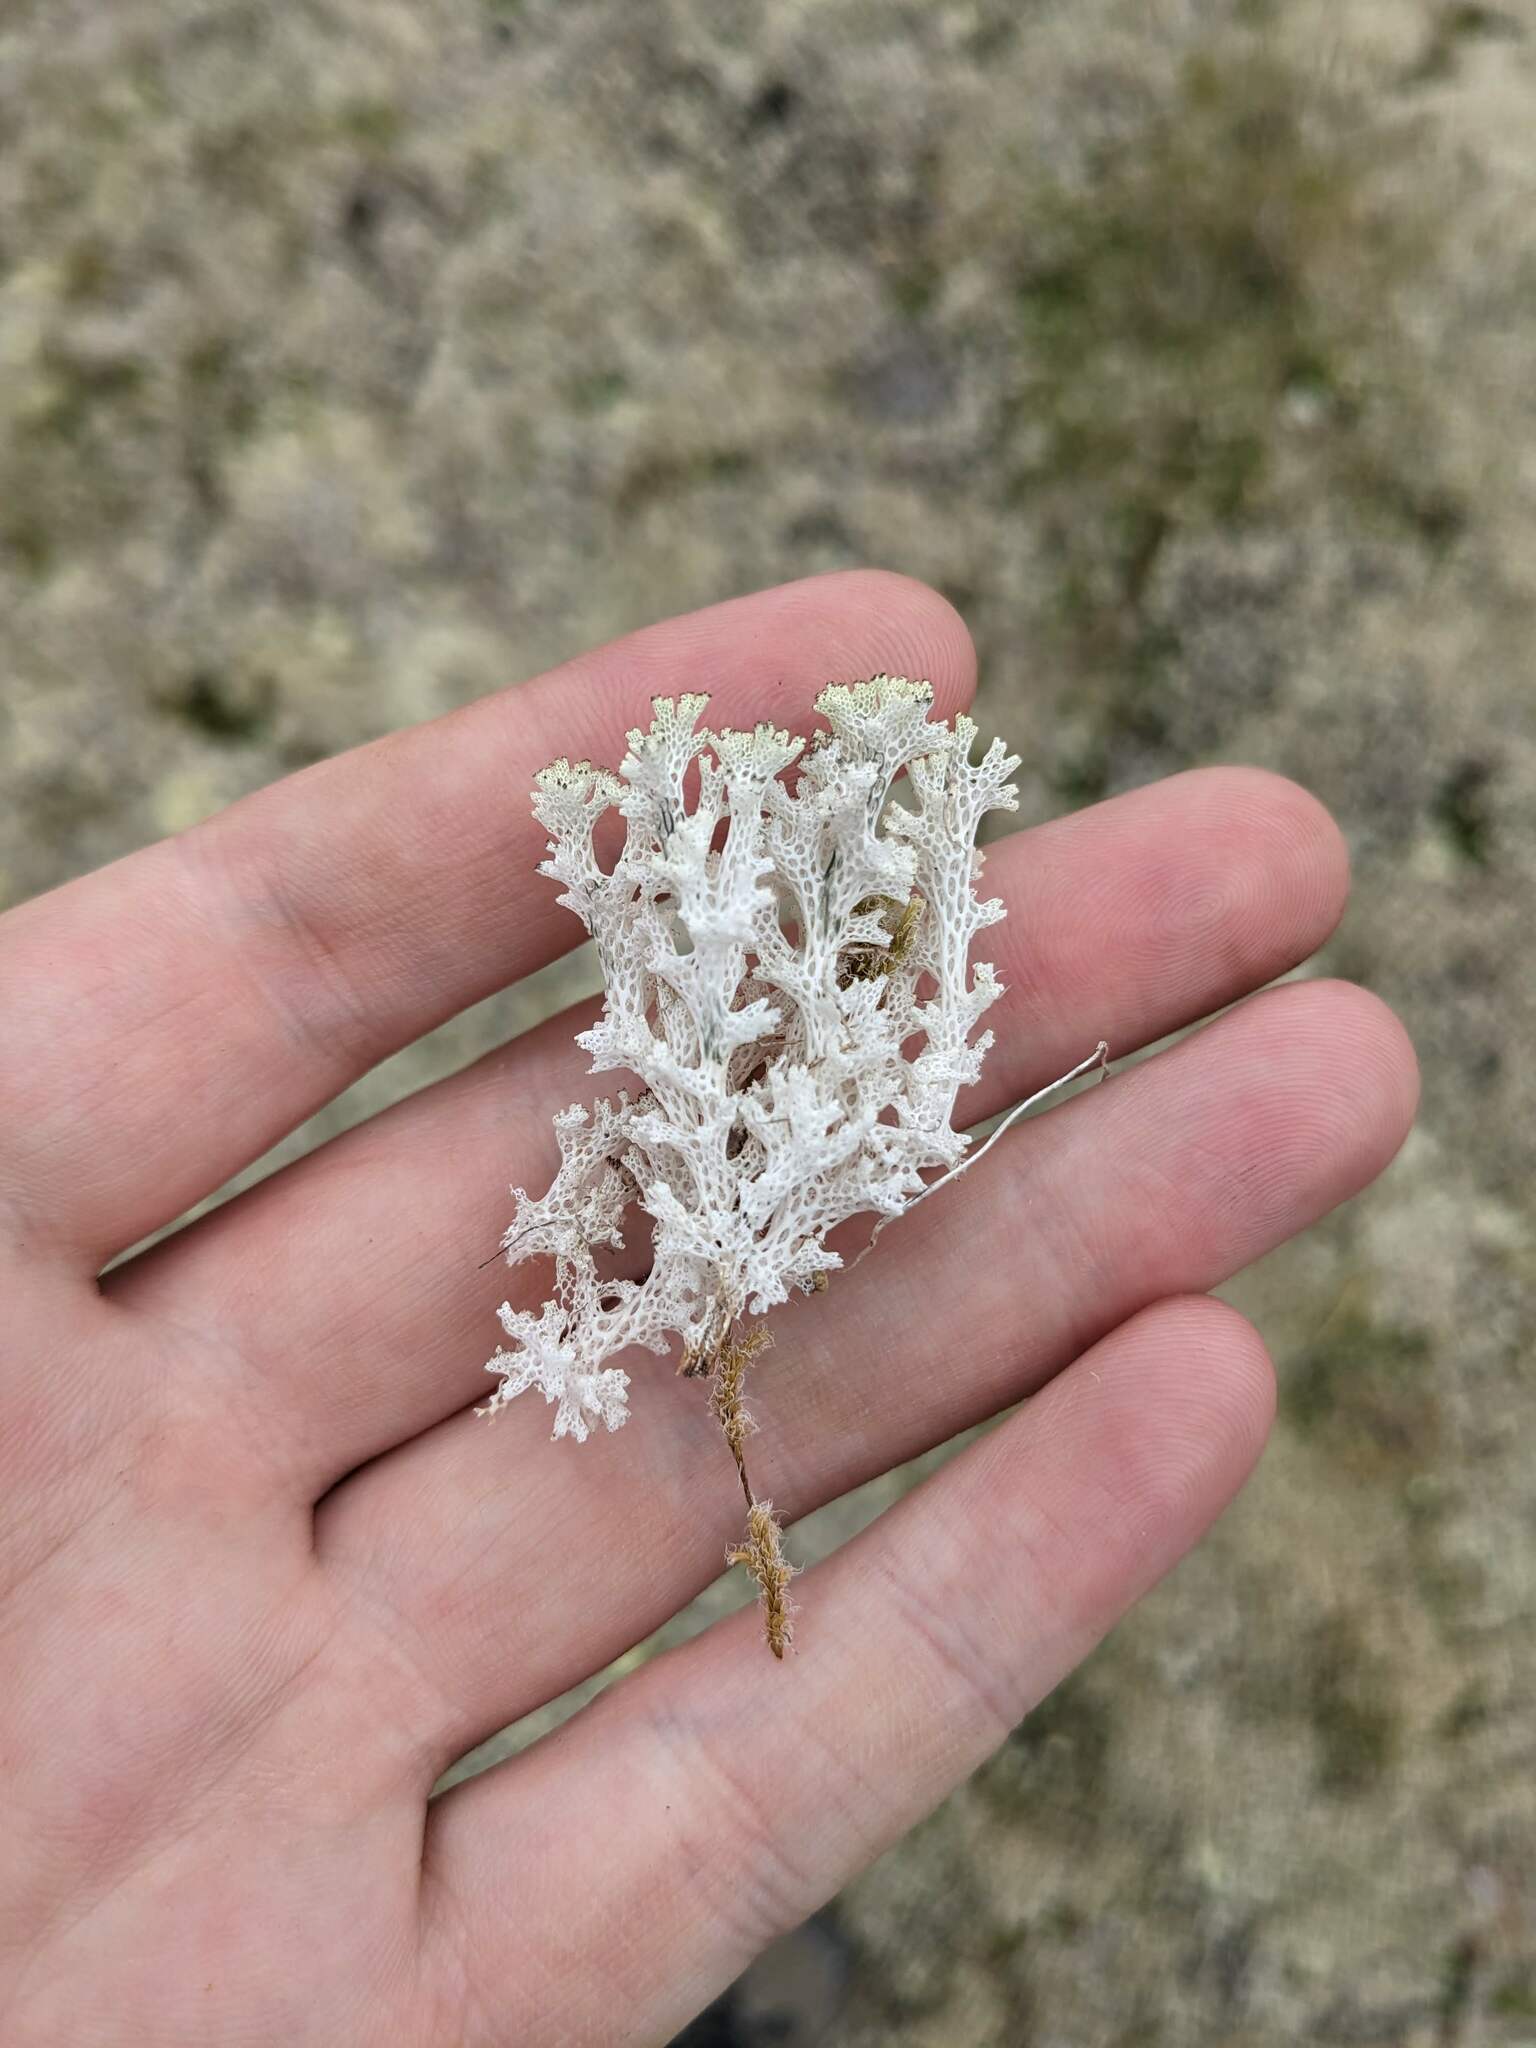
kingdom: Fungi
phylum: Ascomycota
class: Lecanoromycetes
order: Lecanorales
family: Cladoniaceae
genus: Pulchrocladia
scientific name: Pulchrocladia retipora
